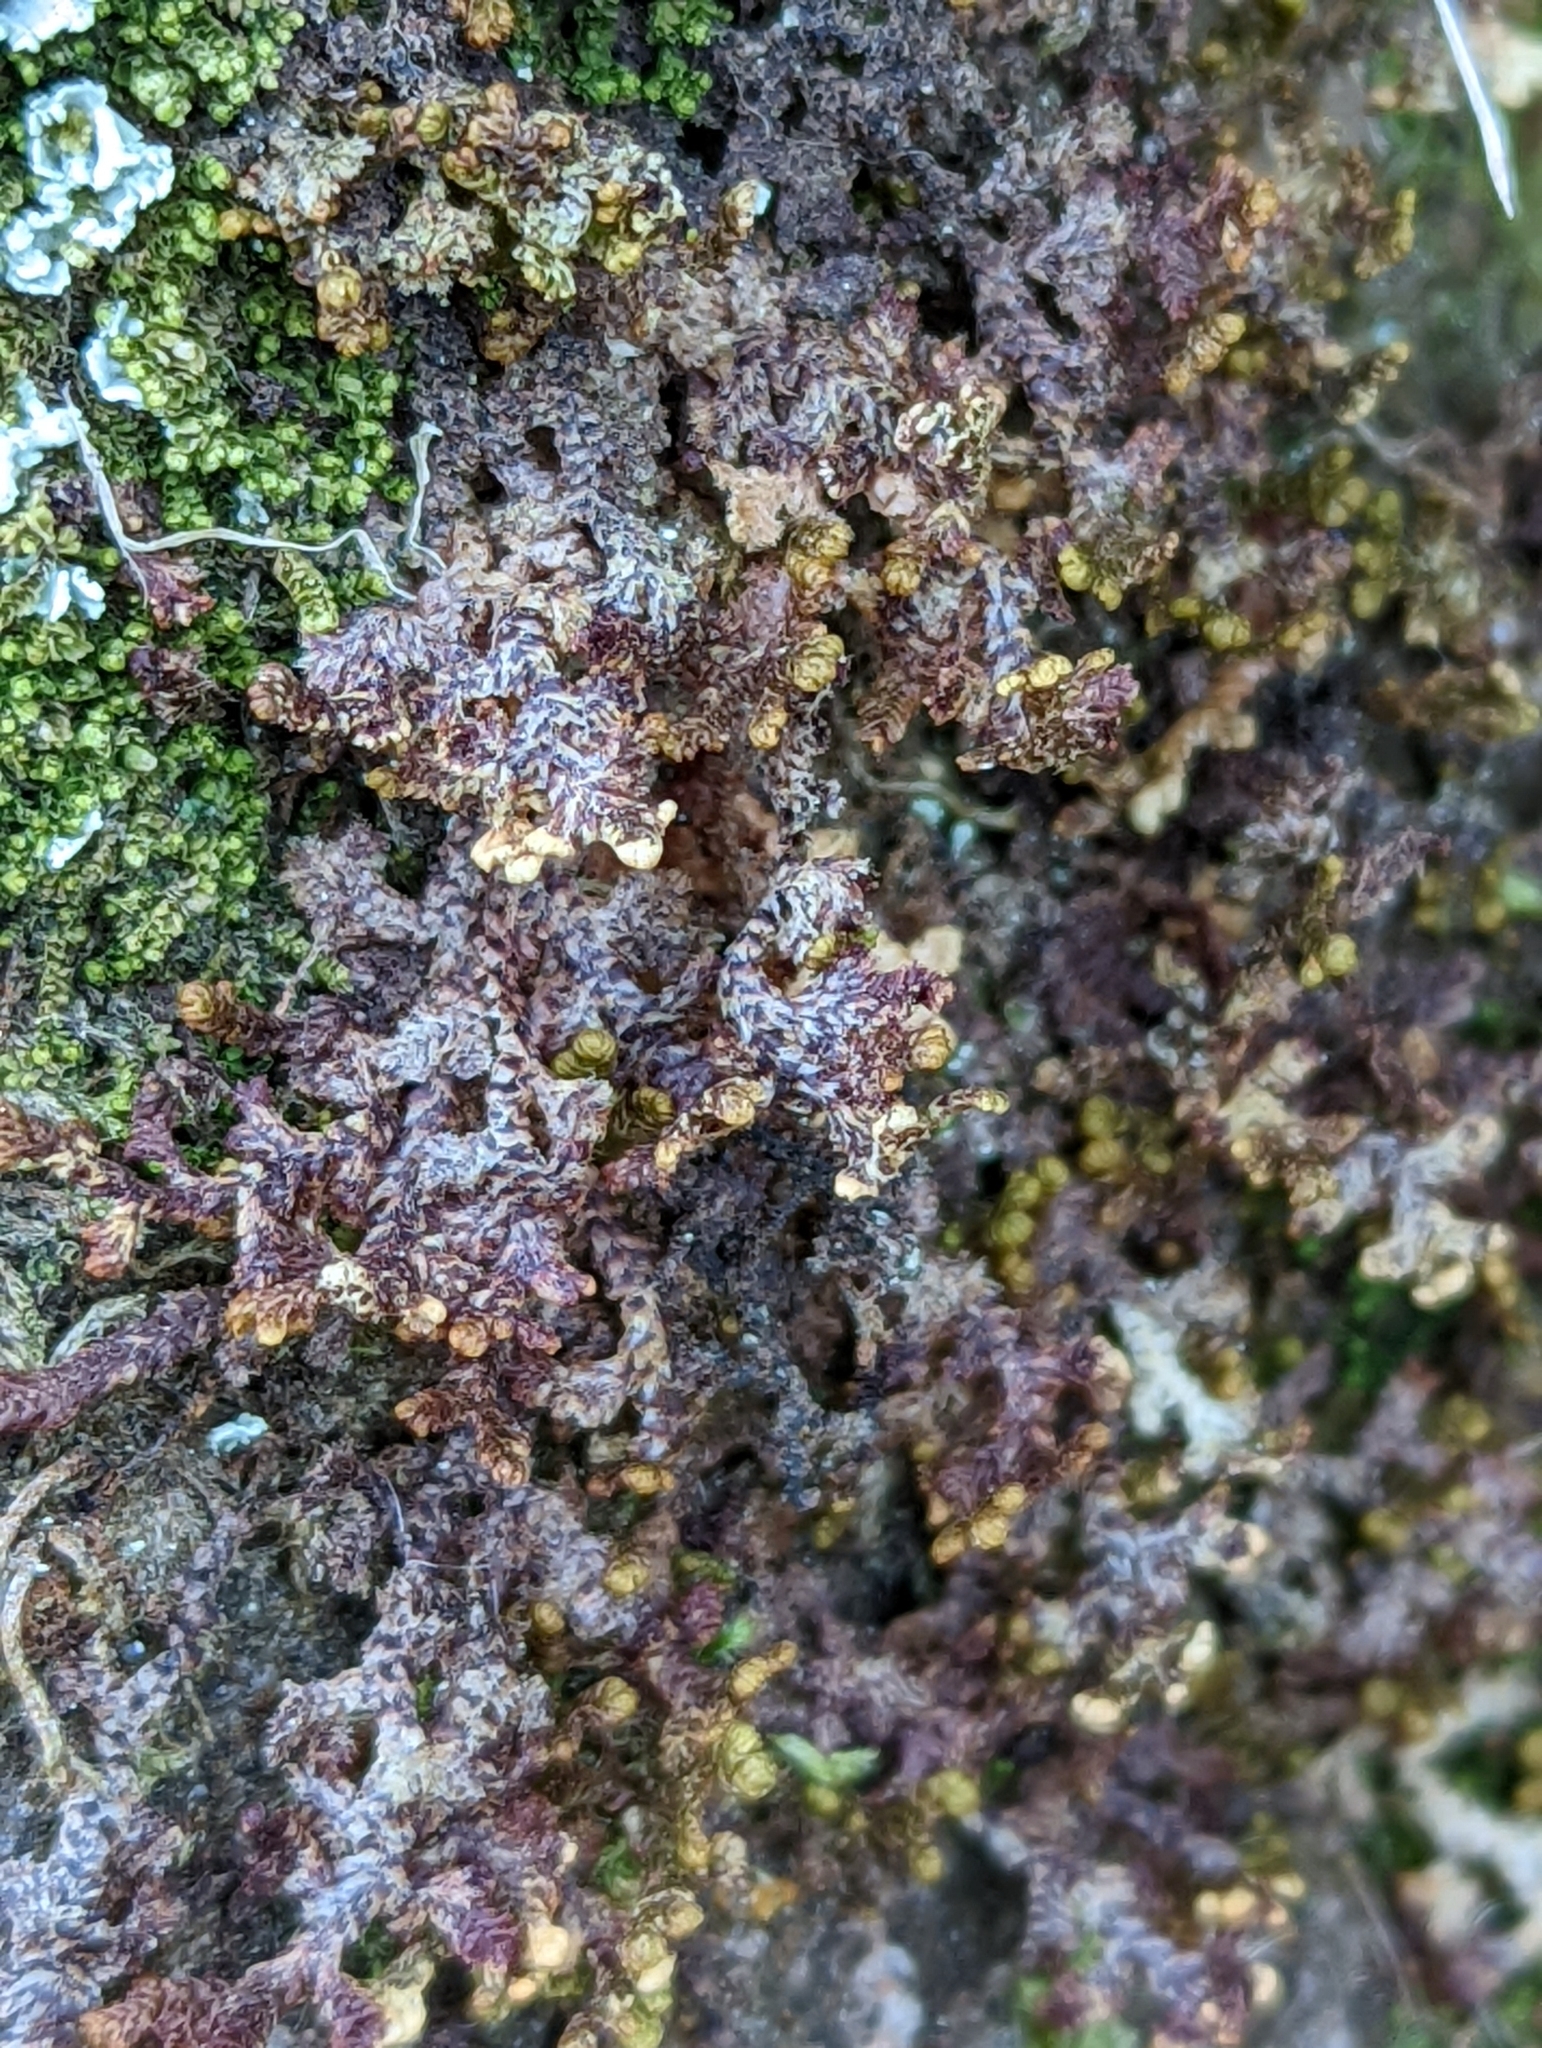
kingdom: Plantae
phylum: Marchantiophyta
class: Jungermanniopsida
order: Ptilidiales
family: Ptilidiaceae
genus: Ptilidium
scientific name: Ptilidium ciliare
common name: Ciliate fringewort
